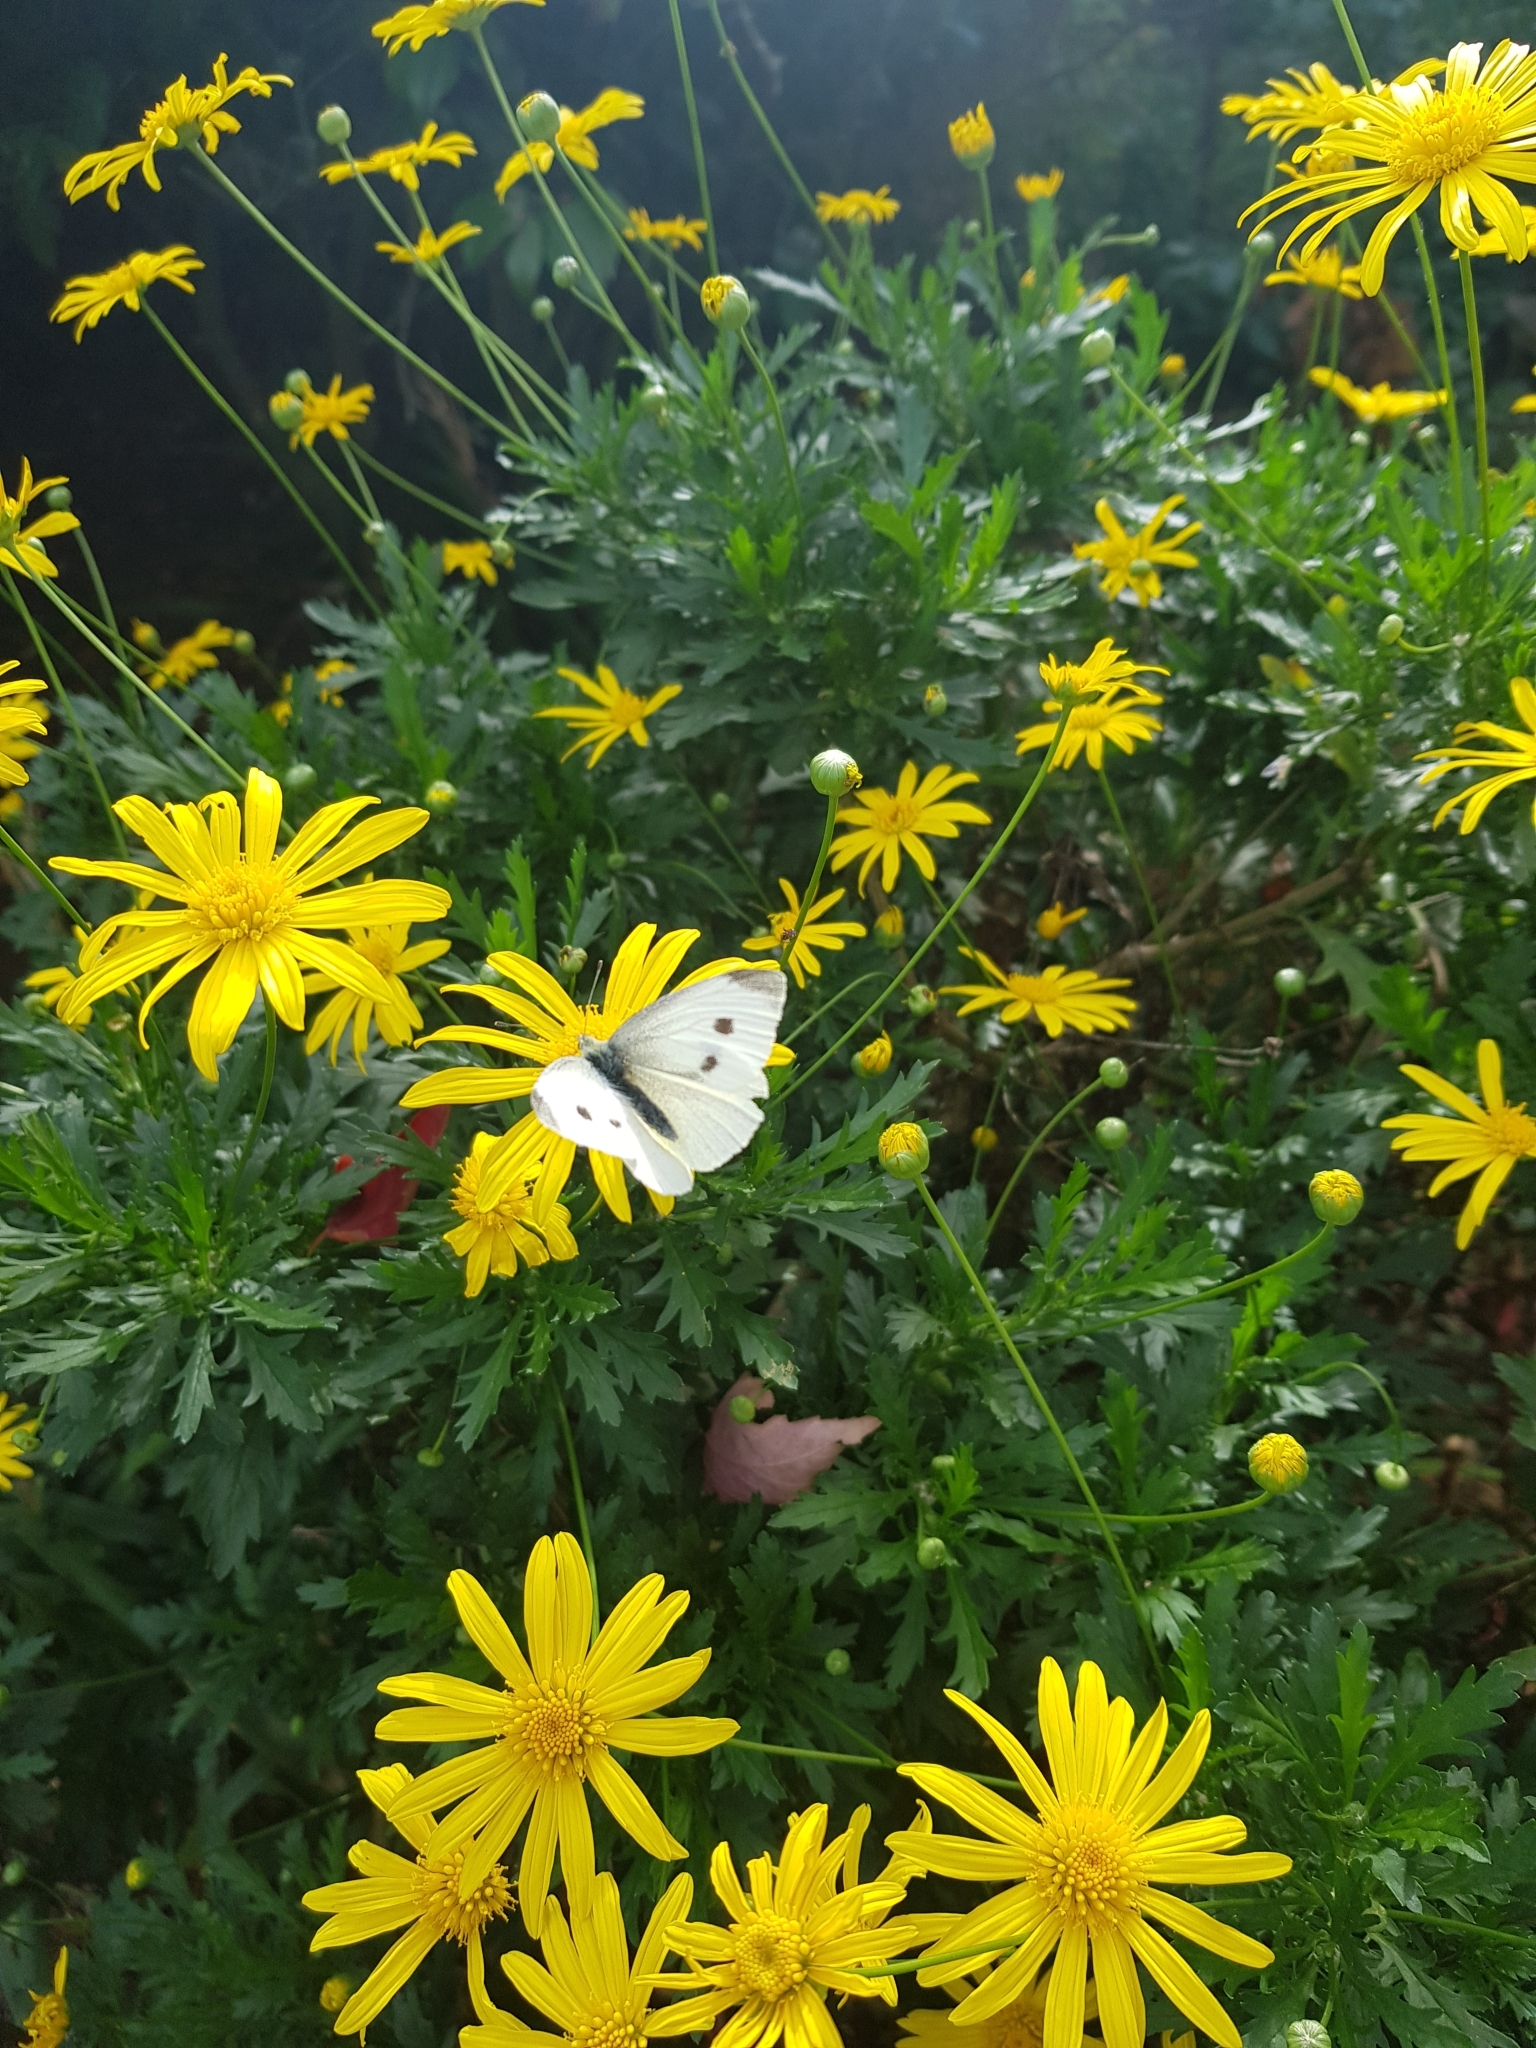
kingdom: Animalia
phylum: Arthropoda
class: Insecta
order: Lepidoptera
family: Pieridae
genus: Pieris
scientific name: Pieris rapae
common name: Small white
